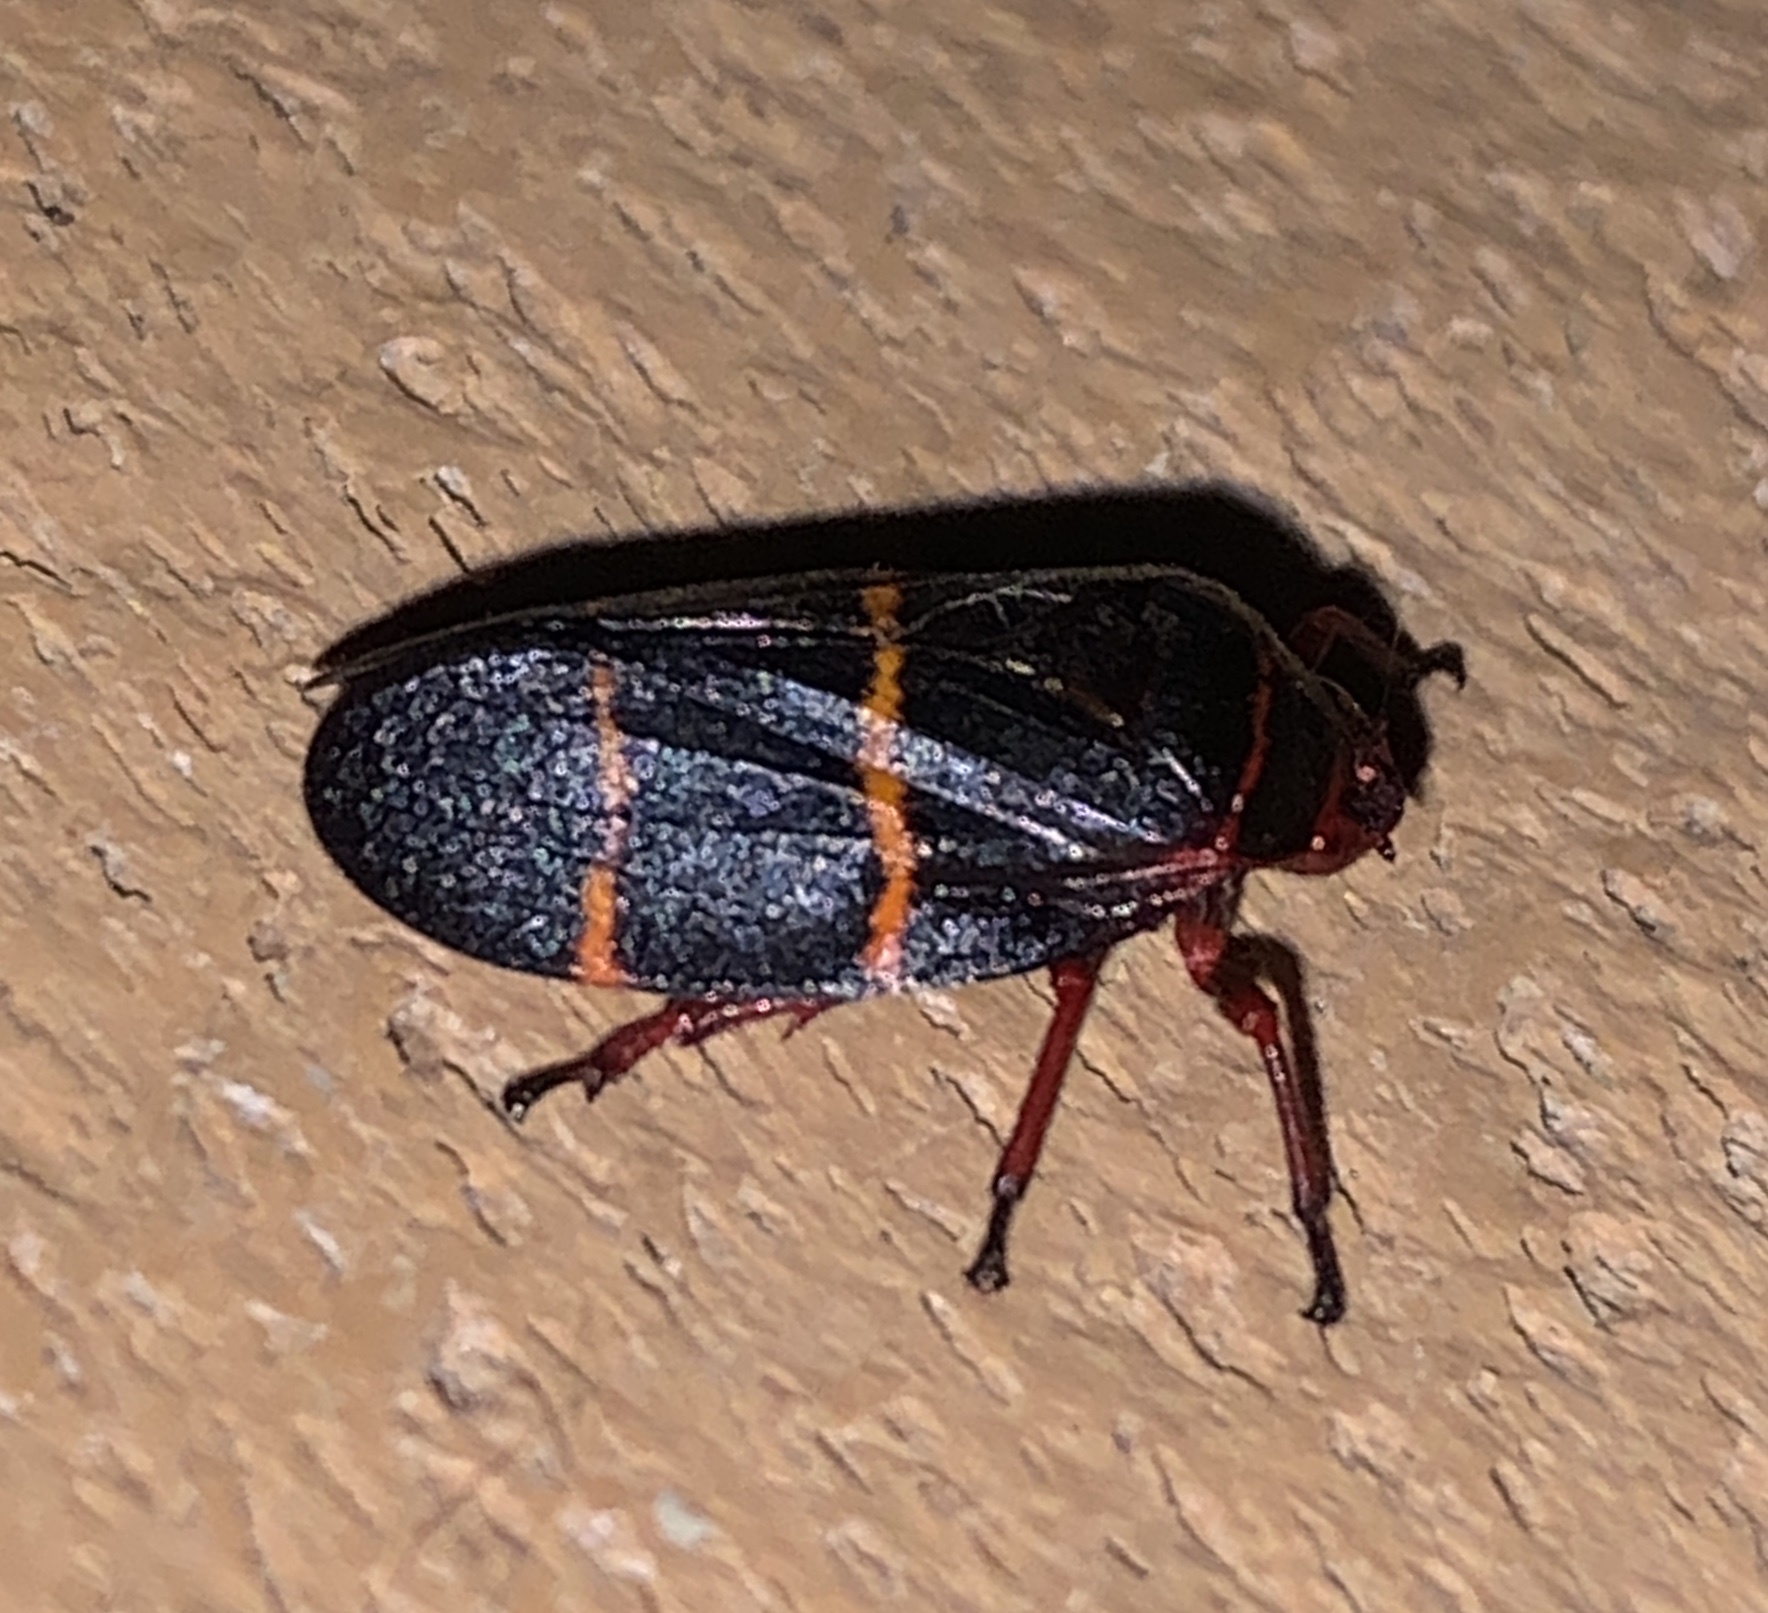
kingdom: Animalia
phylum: Arthropoda
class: Insecta
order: Hemiptera
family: Cercopidae
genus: Prosapia
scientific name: Prosapia bicincta
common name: Twolined spittlebug
